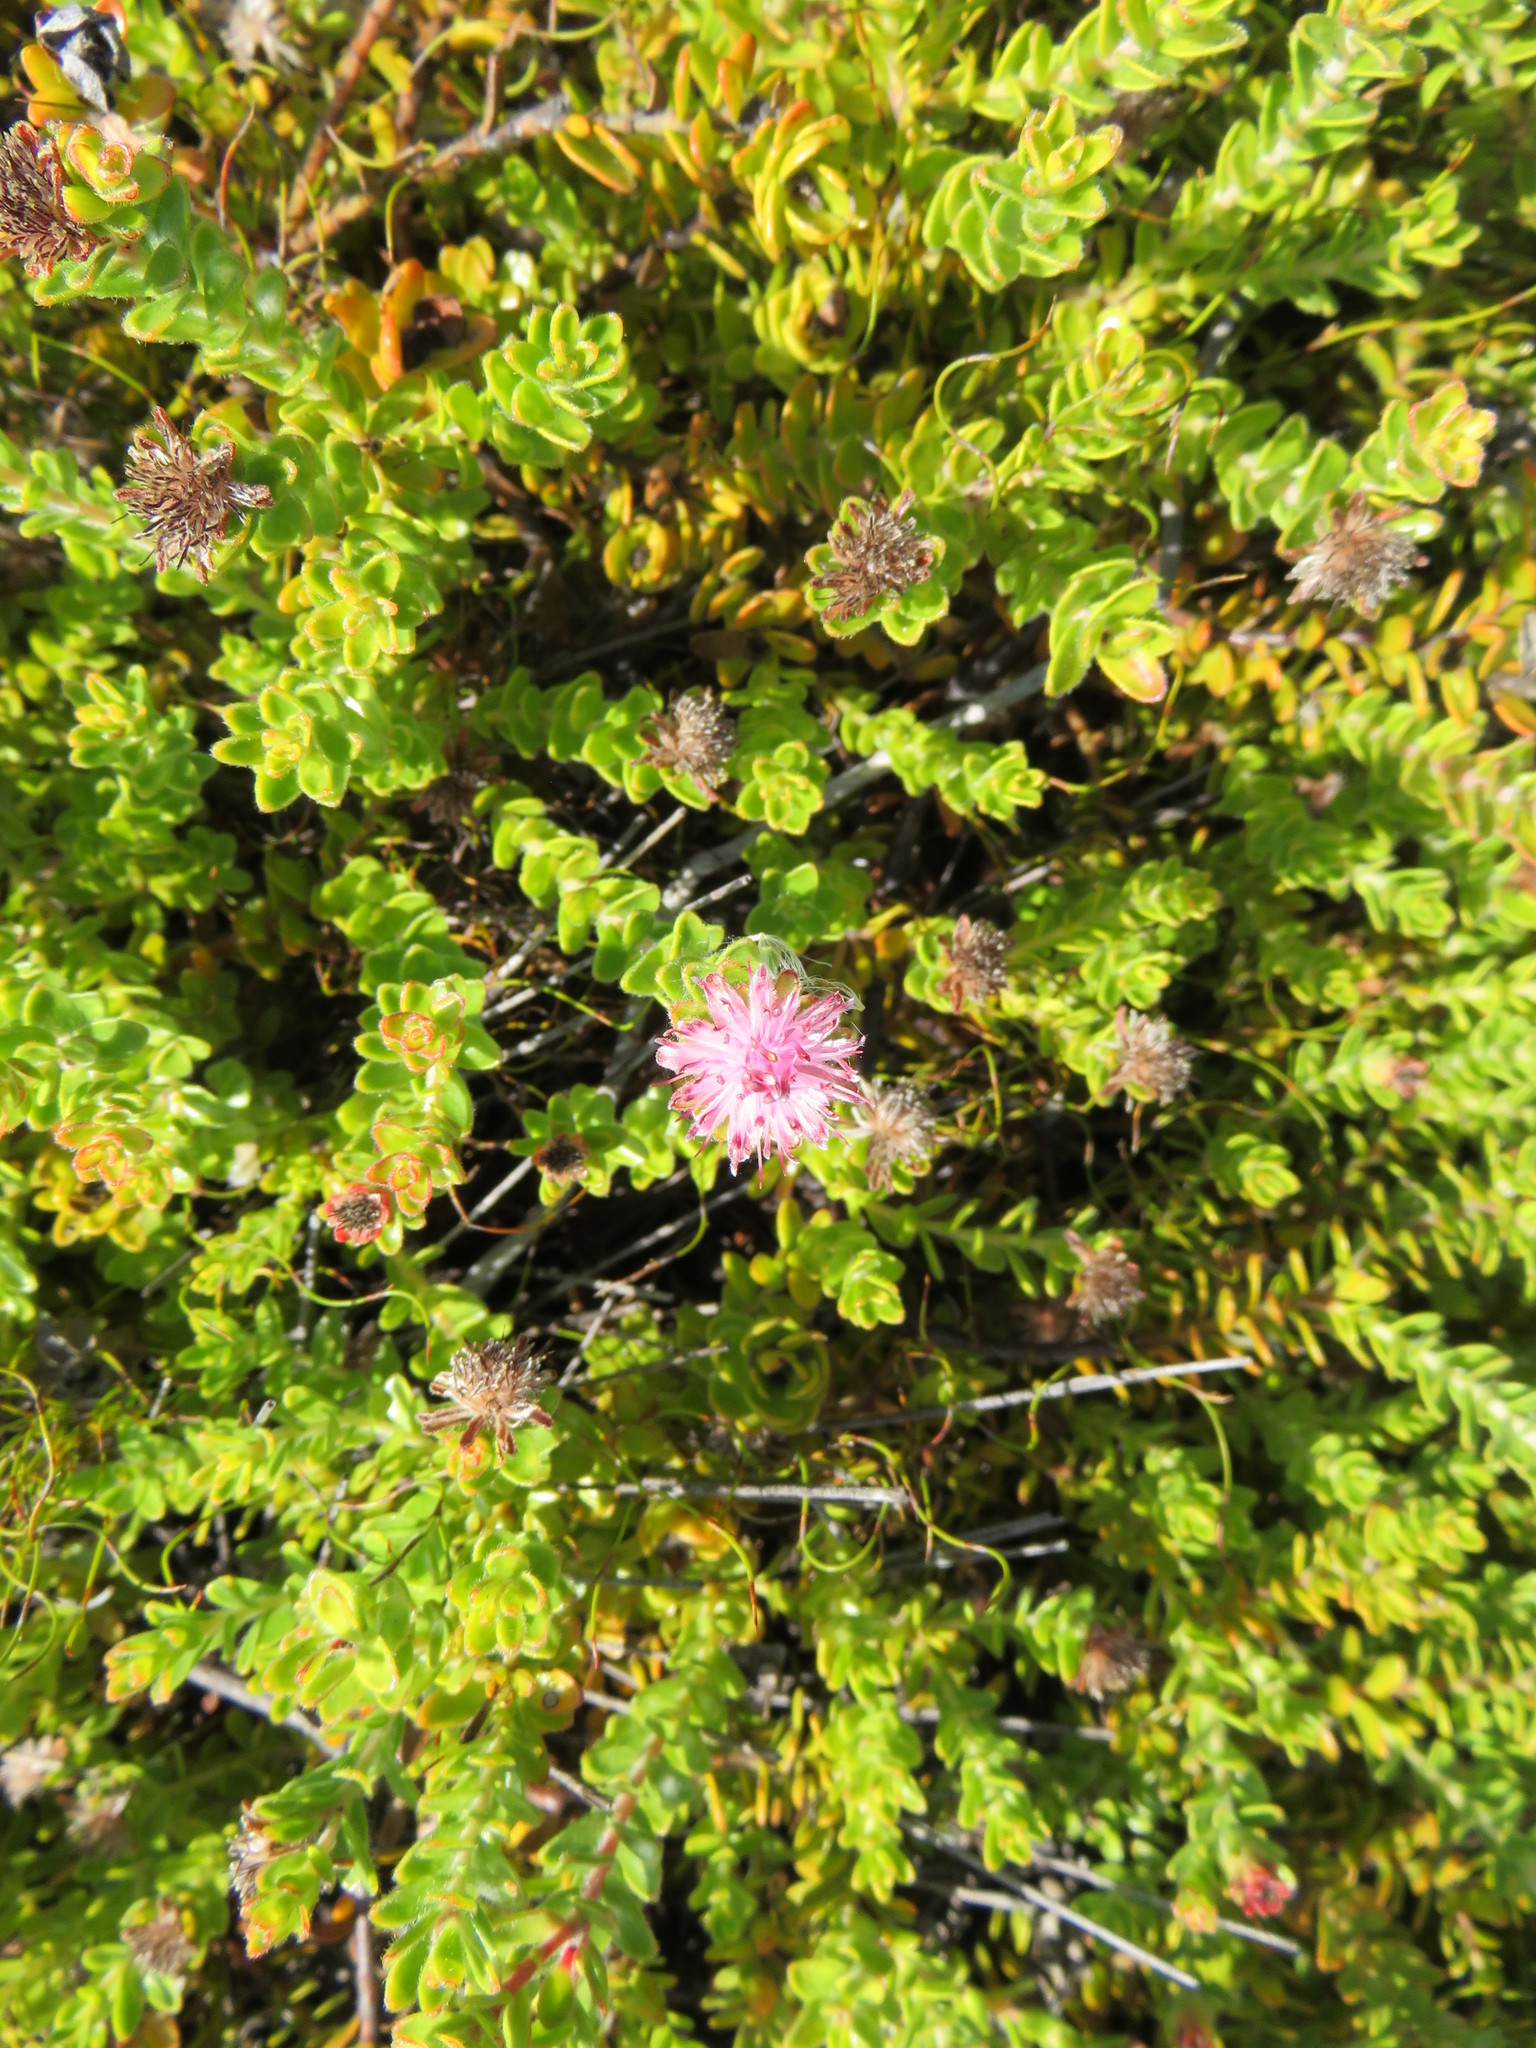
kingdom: Plantae
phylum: Tracheophyta
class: Magnoliopsida
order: Proteales
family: Proteaceae
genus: Diastella
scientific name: Diastella divaricata
